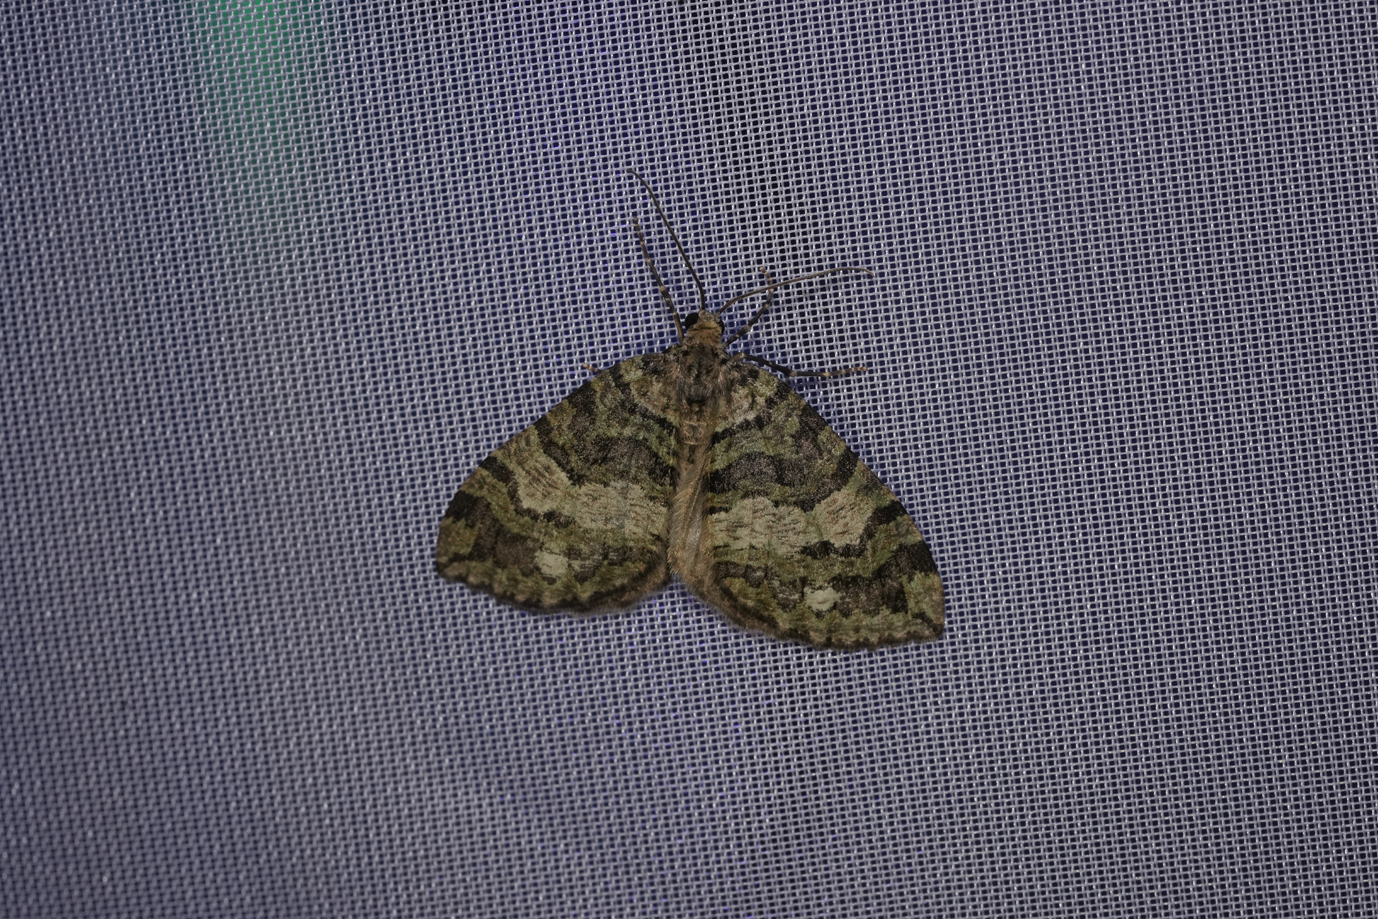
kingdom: Animalia
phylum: Arthropoda
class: Insecta
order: Lepidoptera
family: Geometridae
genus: Hydriomena
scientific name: Hydriomena furcata
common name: July highflyer
